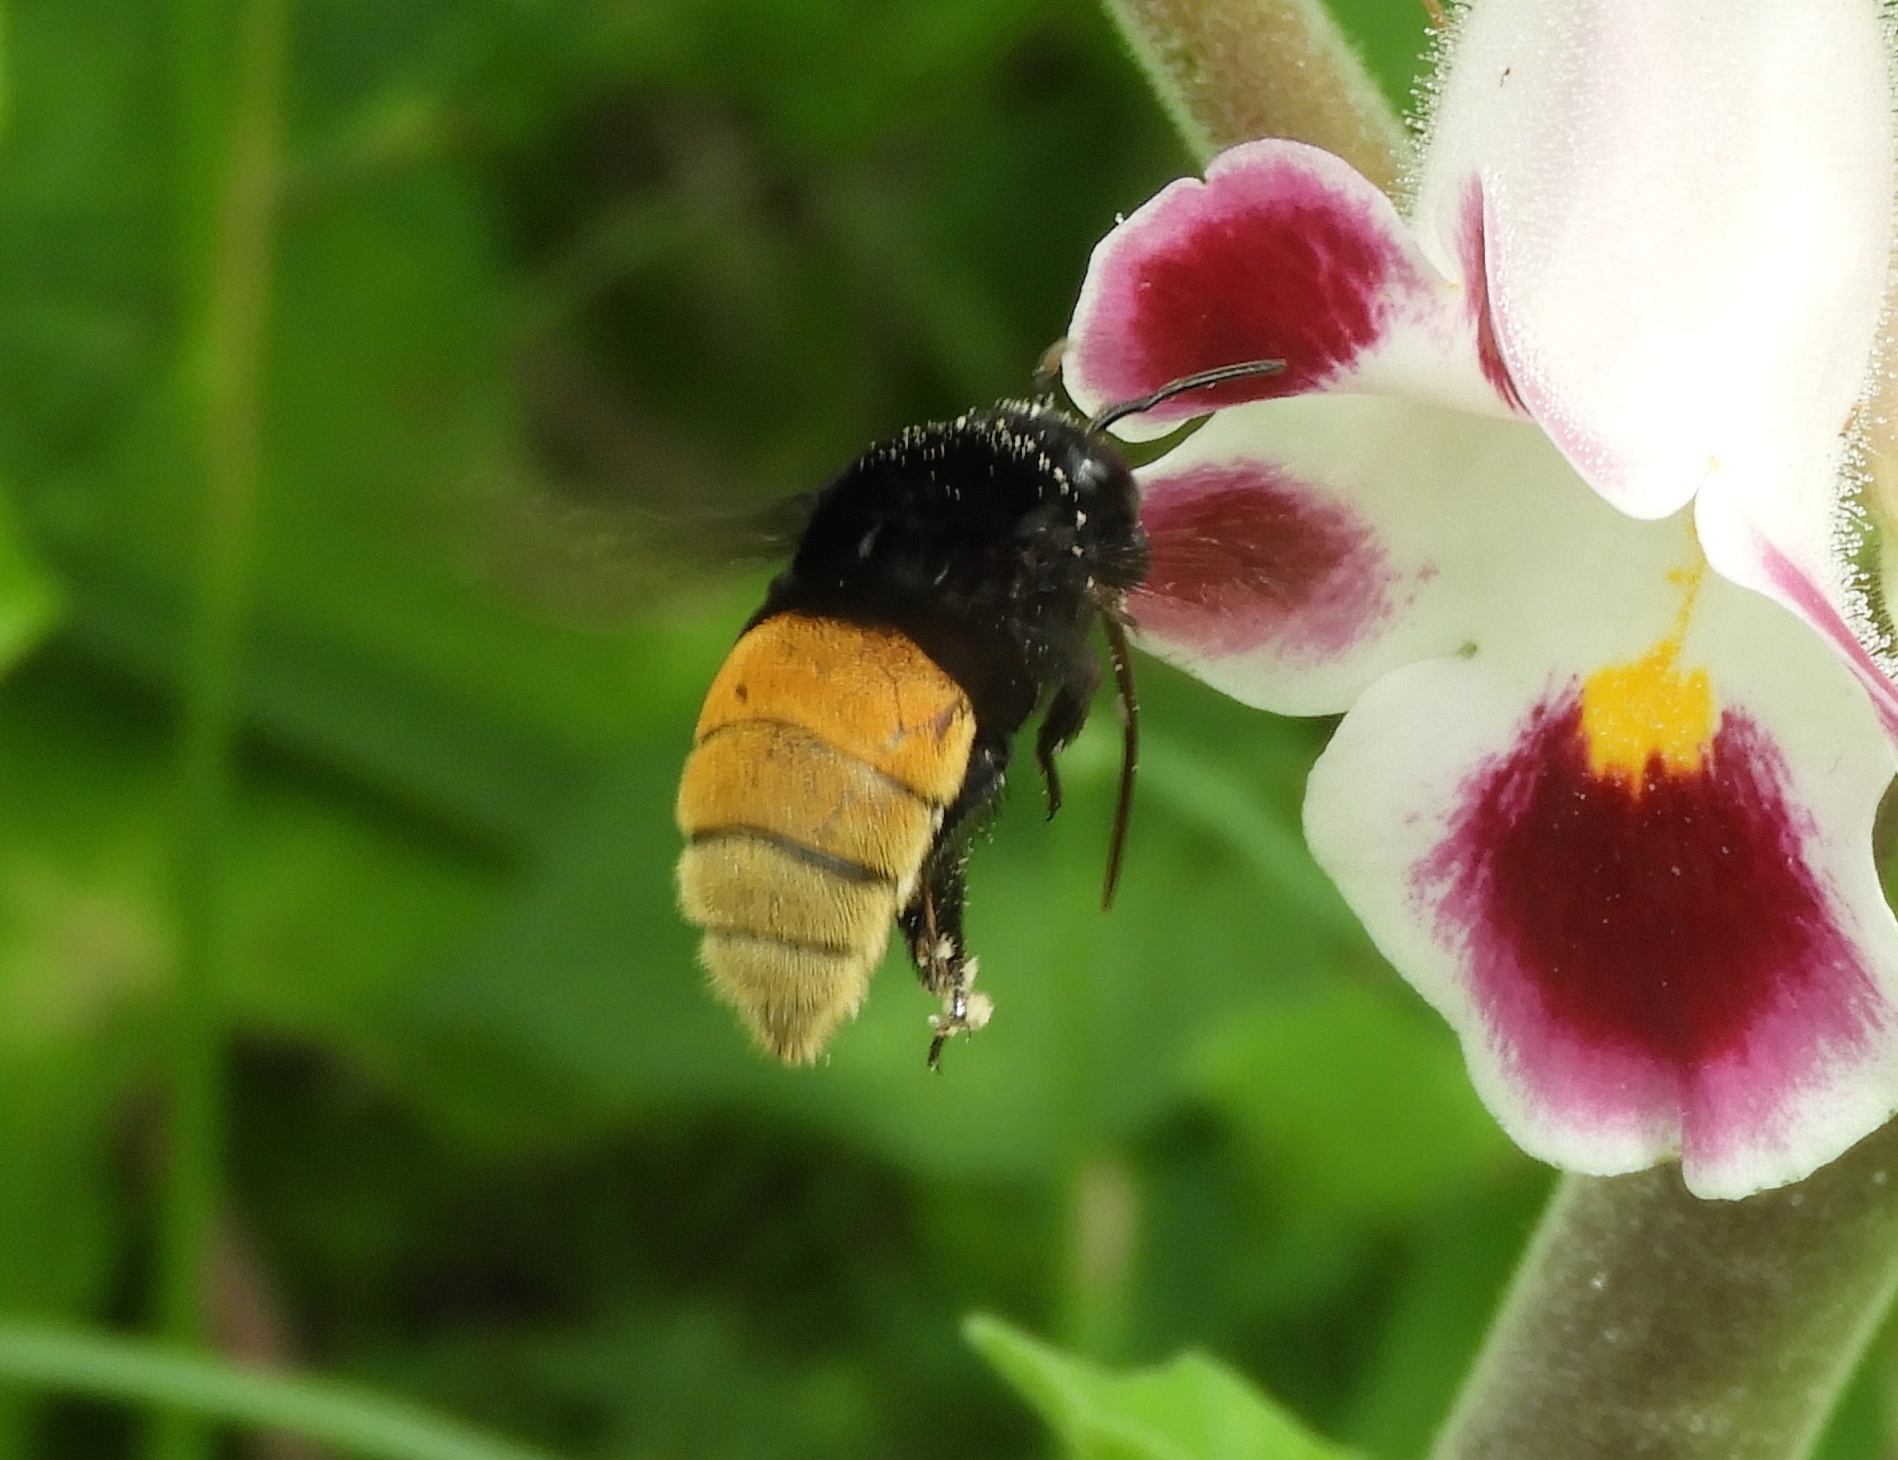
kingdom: Animalia
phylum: Arthropoda
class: Insecta
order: Hymenoptera
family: Apidae
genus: Eulaema
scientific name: Eulaema polychroma
